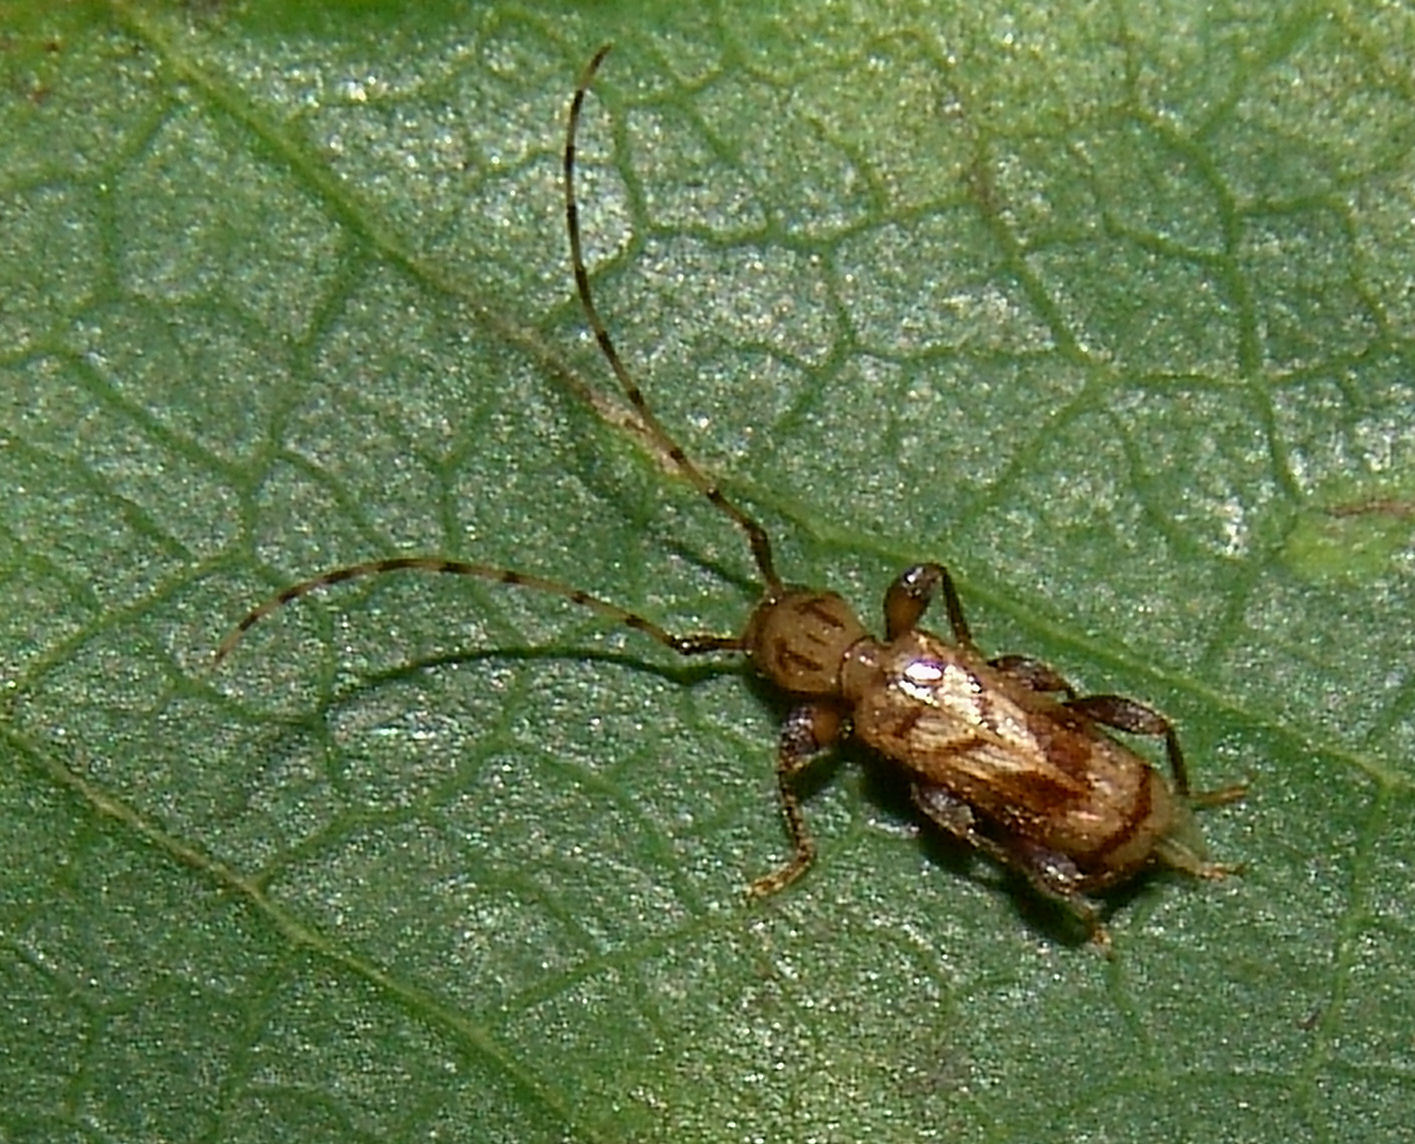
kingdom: Animalia
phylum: Arthropoda
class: Insecta
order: Coleoptera
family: Cerambycidae
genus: Obrium
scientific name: Obrium maculatum
